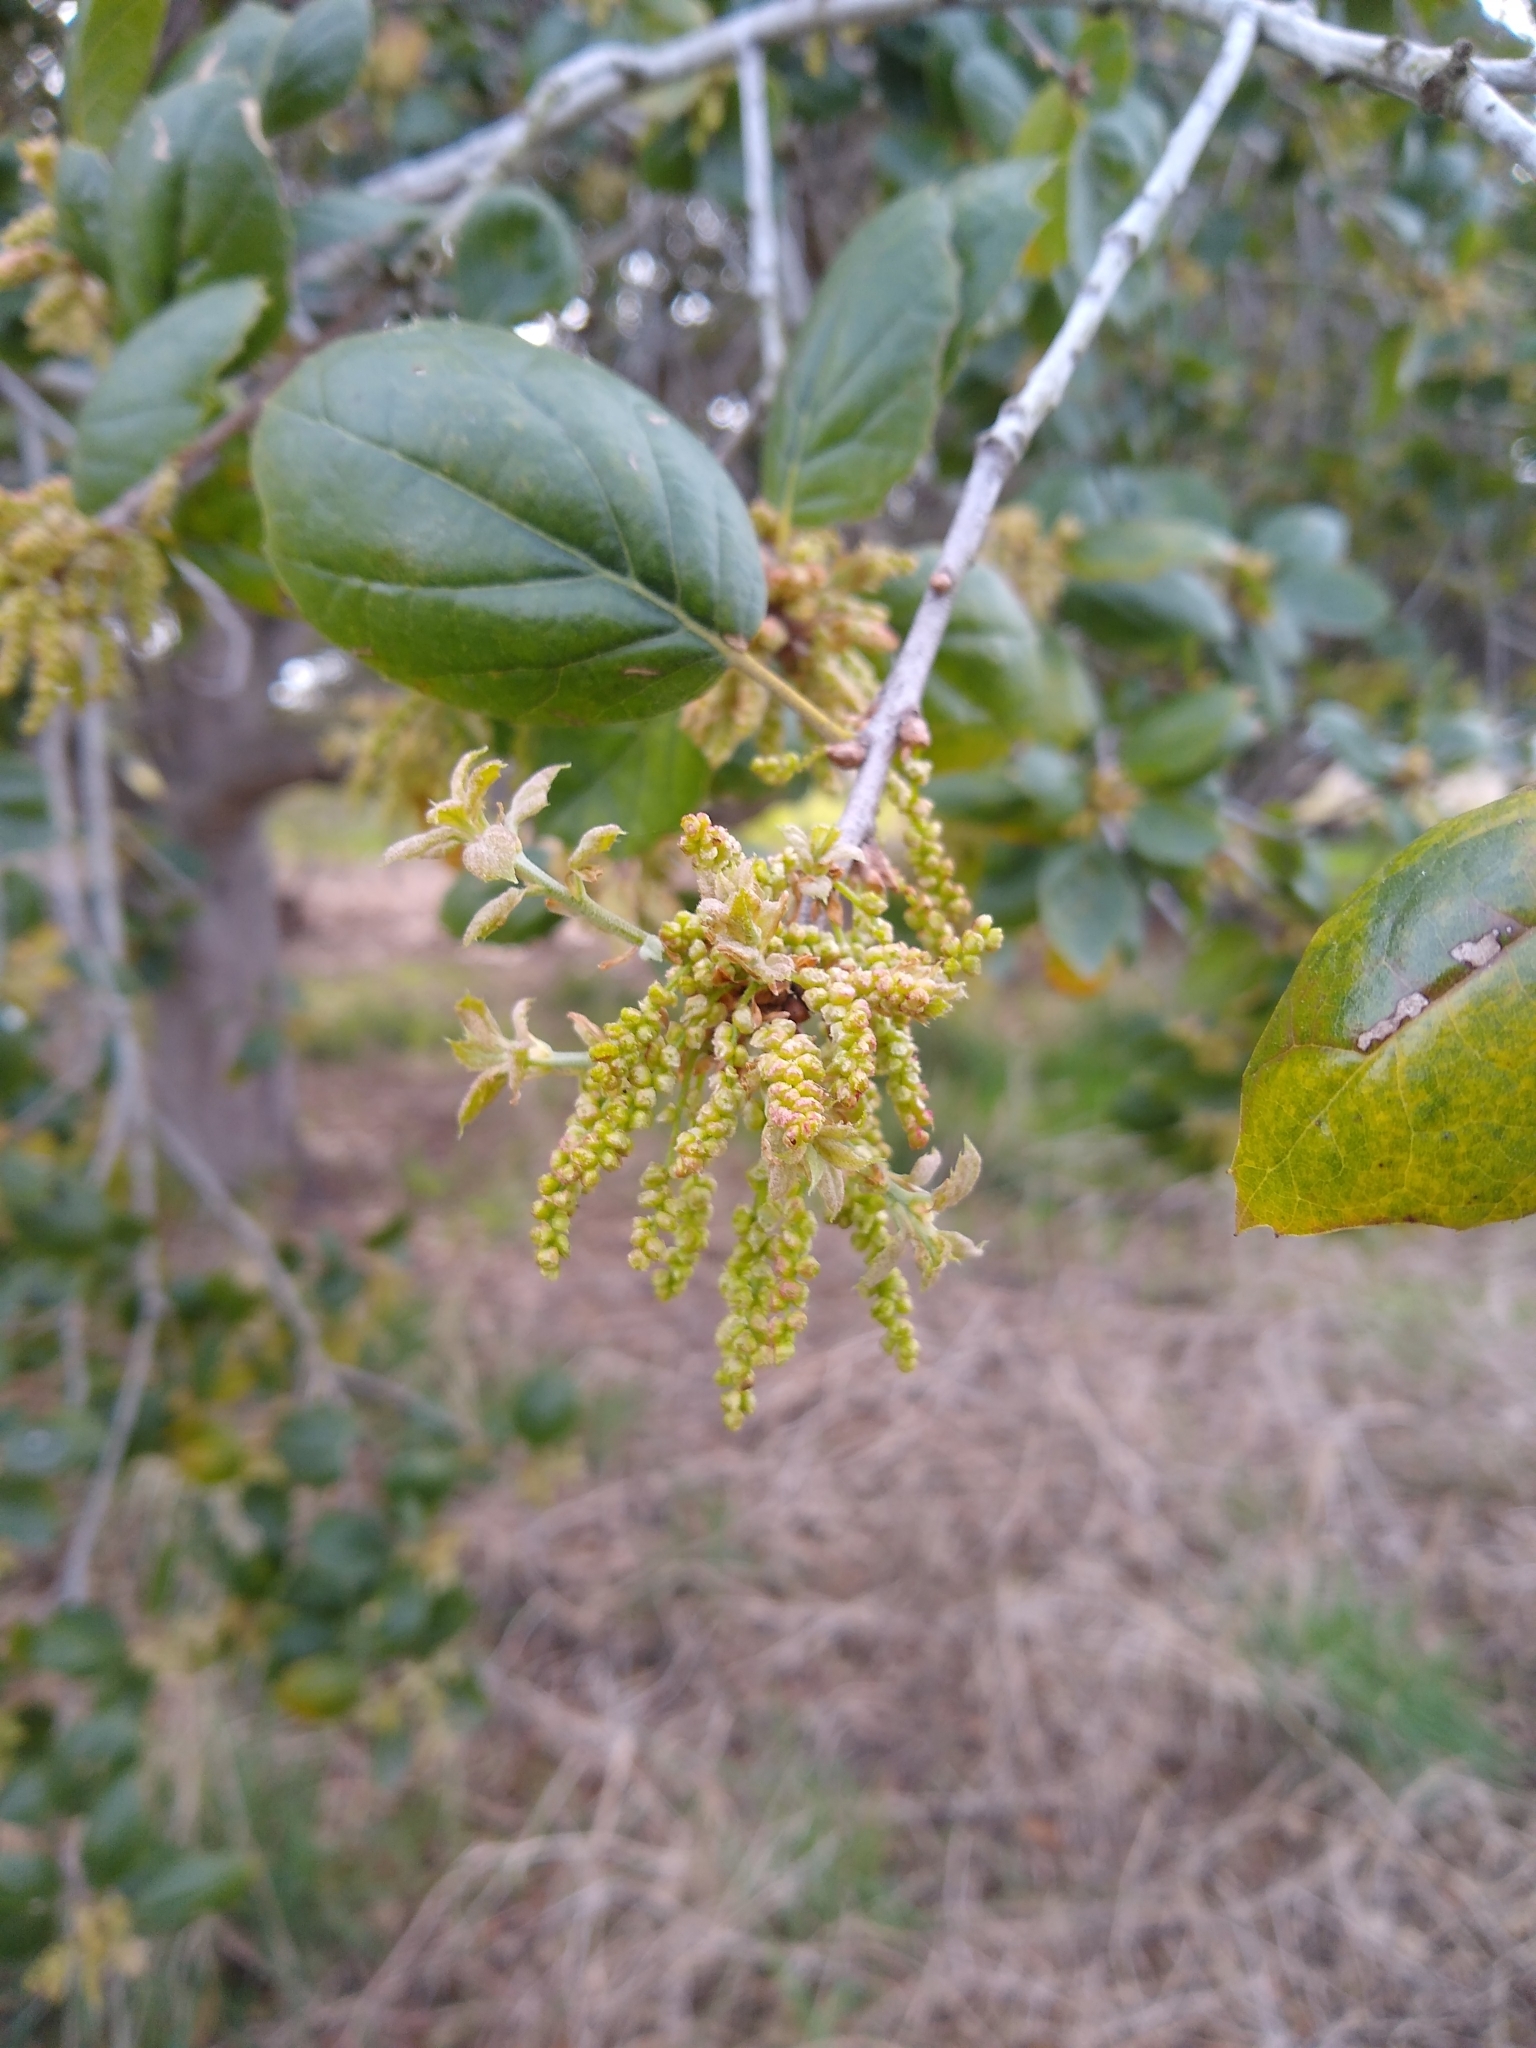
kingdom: Plantae
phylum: Tracheophyta
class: Magnoliopsida
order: Fagales
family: Fagaceae
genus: Quercus
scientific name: Quercus agrifolia
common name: California live oak
